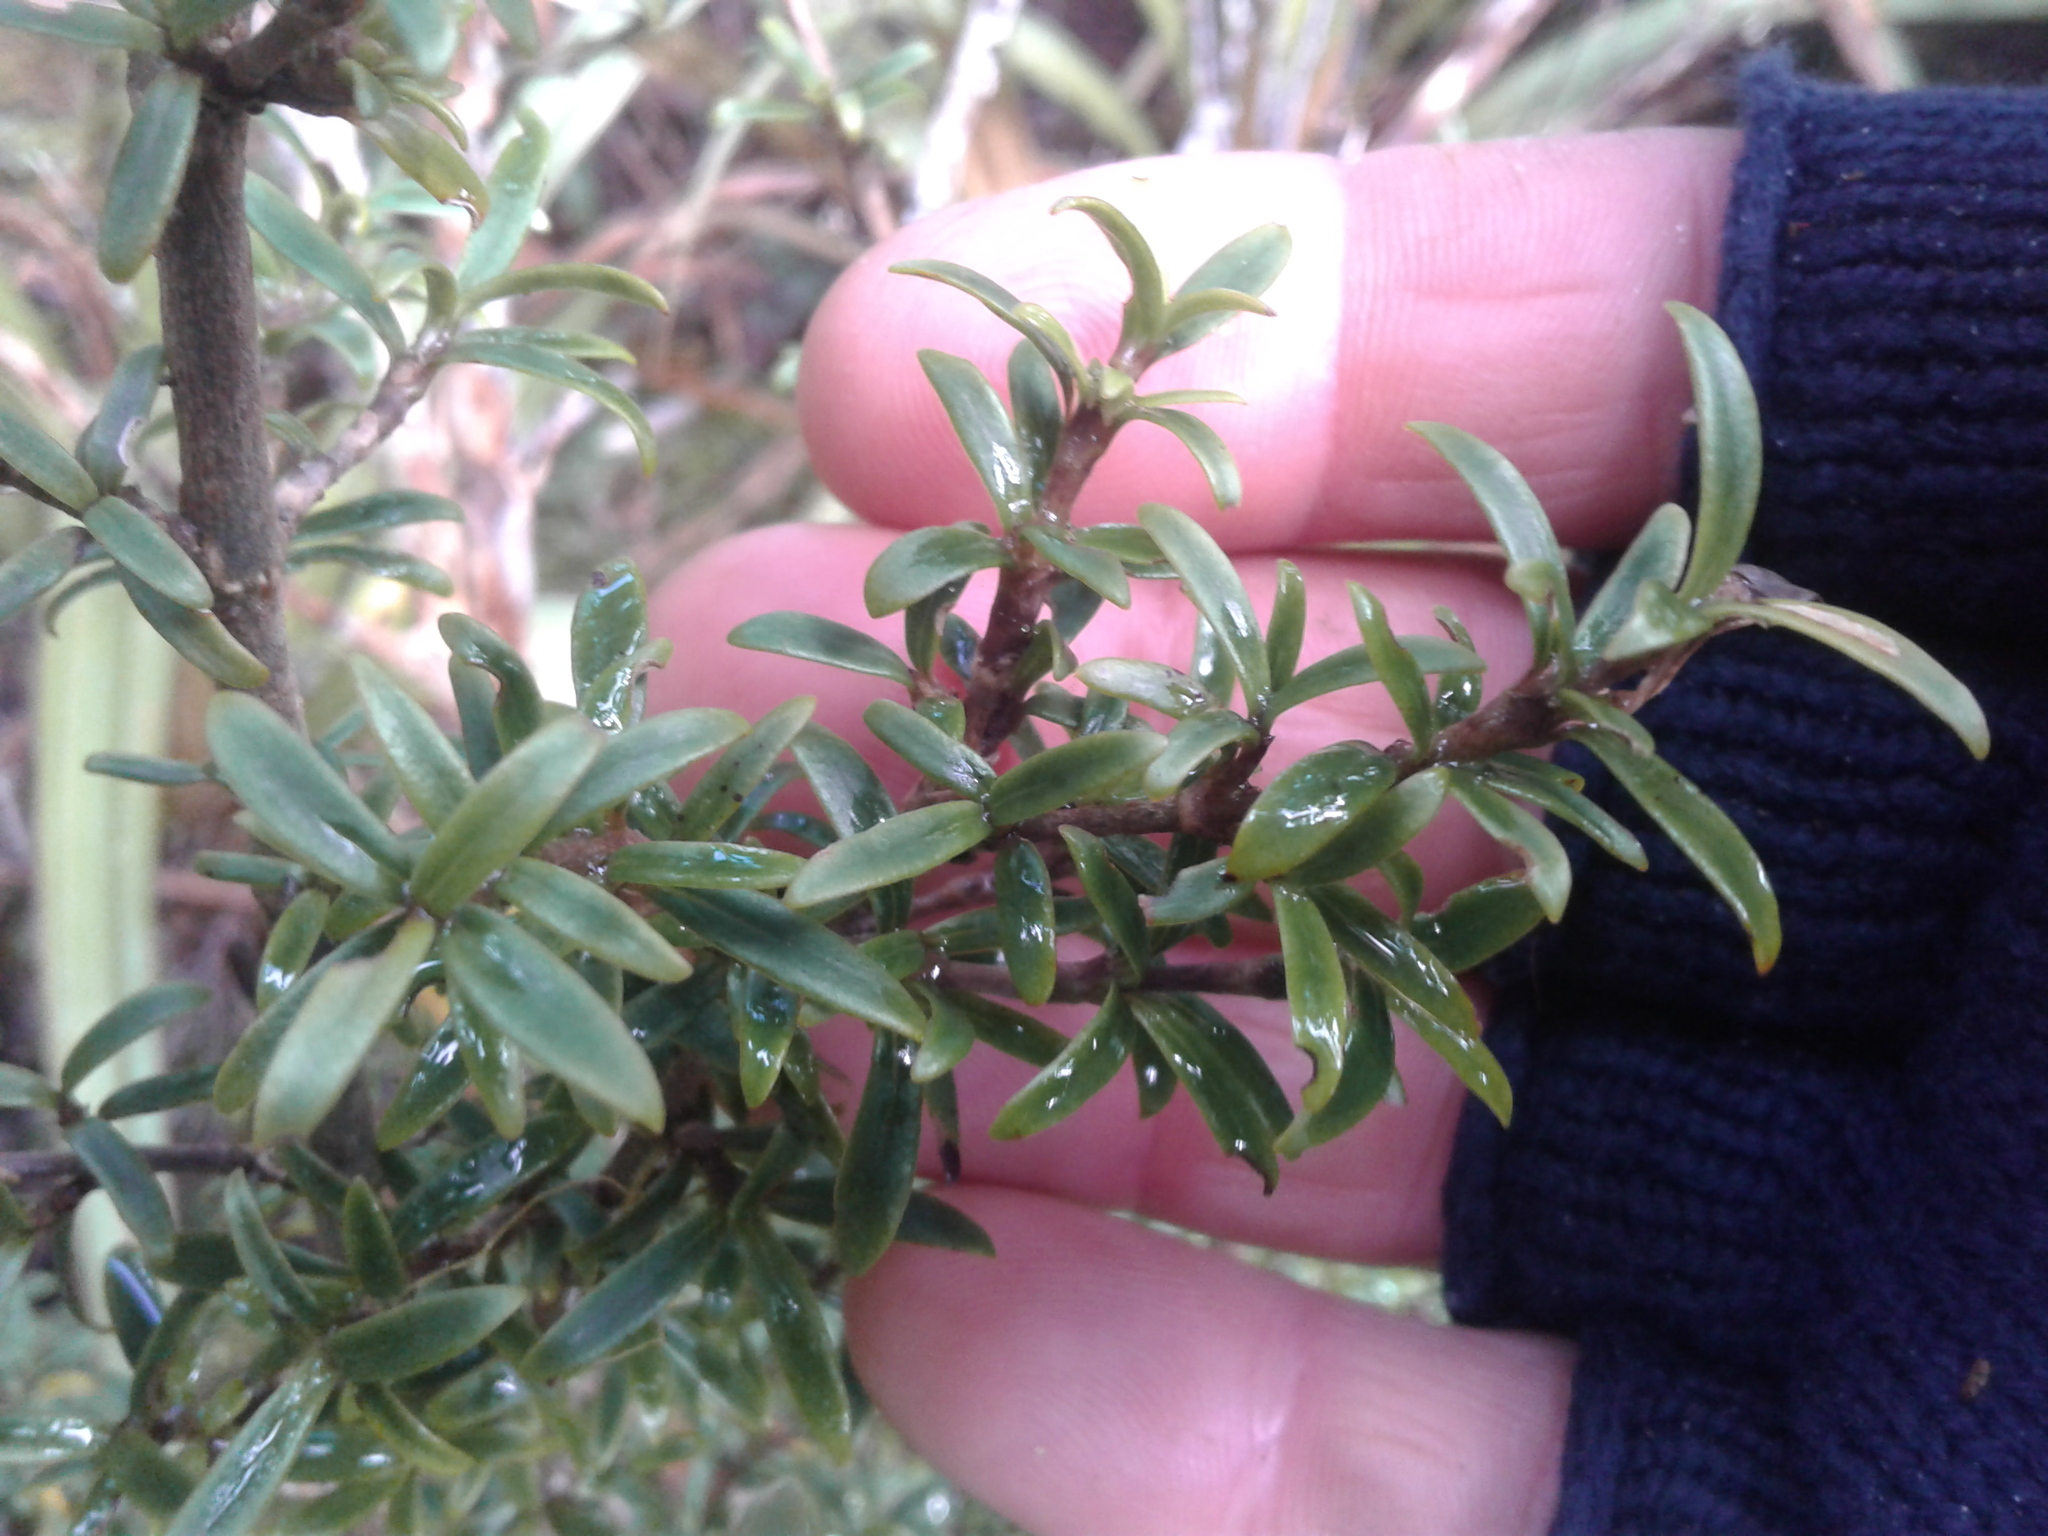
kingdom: Plantae
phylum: Tracheophyta
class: Magnoliopsida
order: Gentianales
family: Rubiaceae
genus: Coprosma
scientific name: Coprosma pseudocuneata
